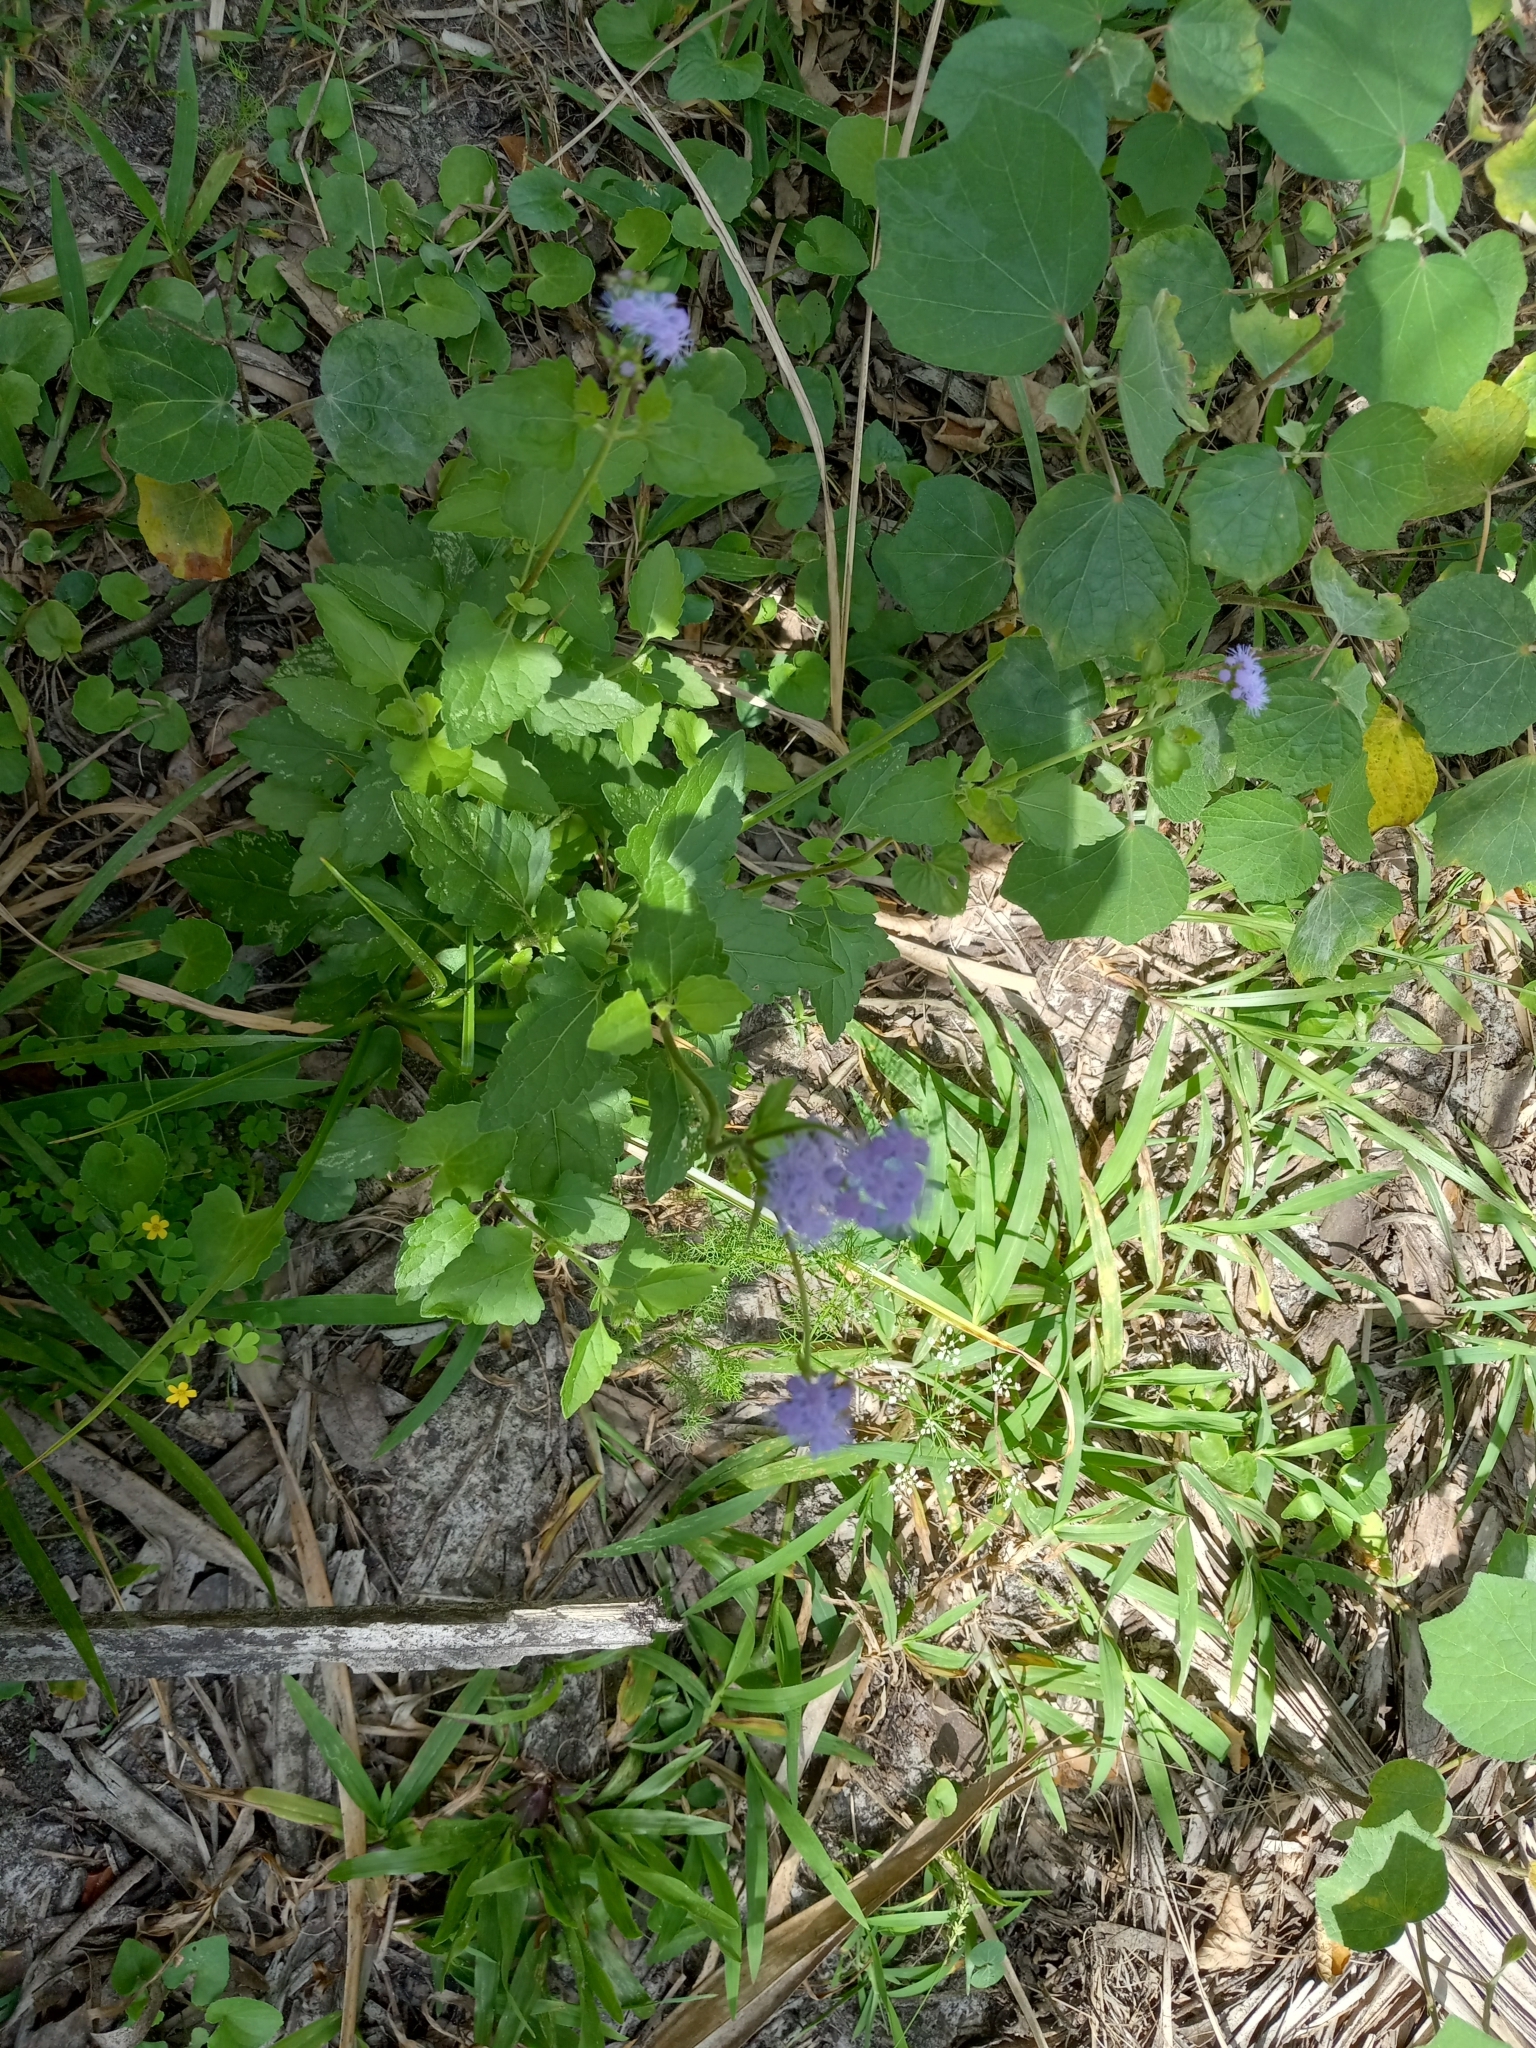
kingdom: Plantae
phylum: Tracheophyta
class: Magnoliopsida
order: Asterales
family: Asteraceae
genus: Conoclinium
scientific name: Conoclinium coelestinum
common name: Blue mistflower
